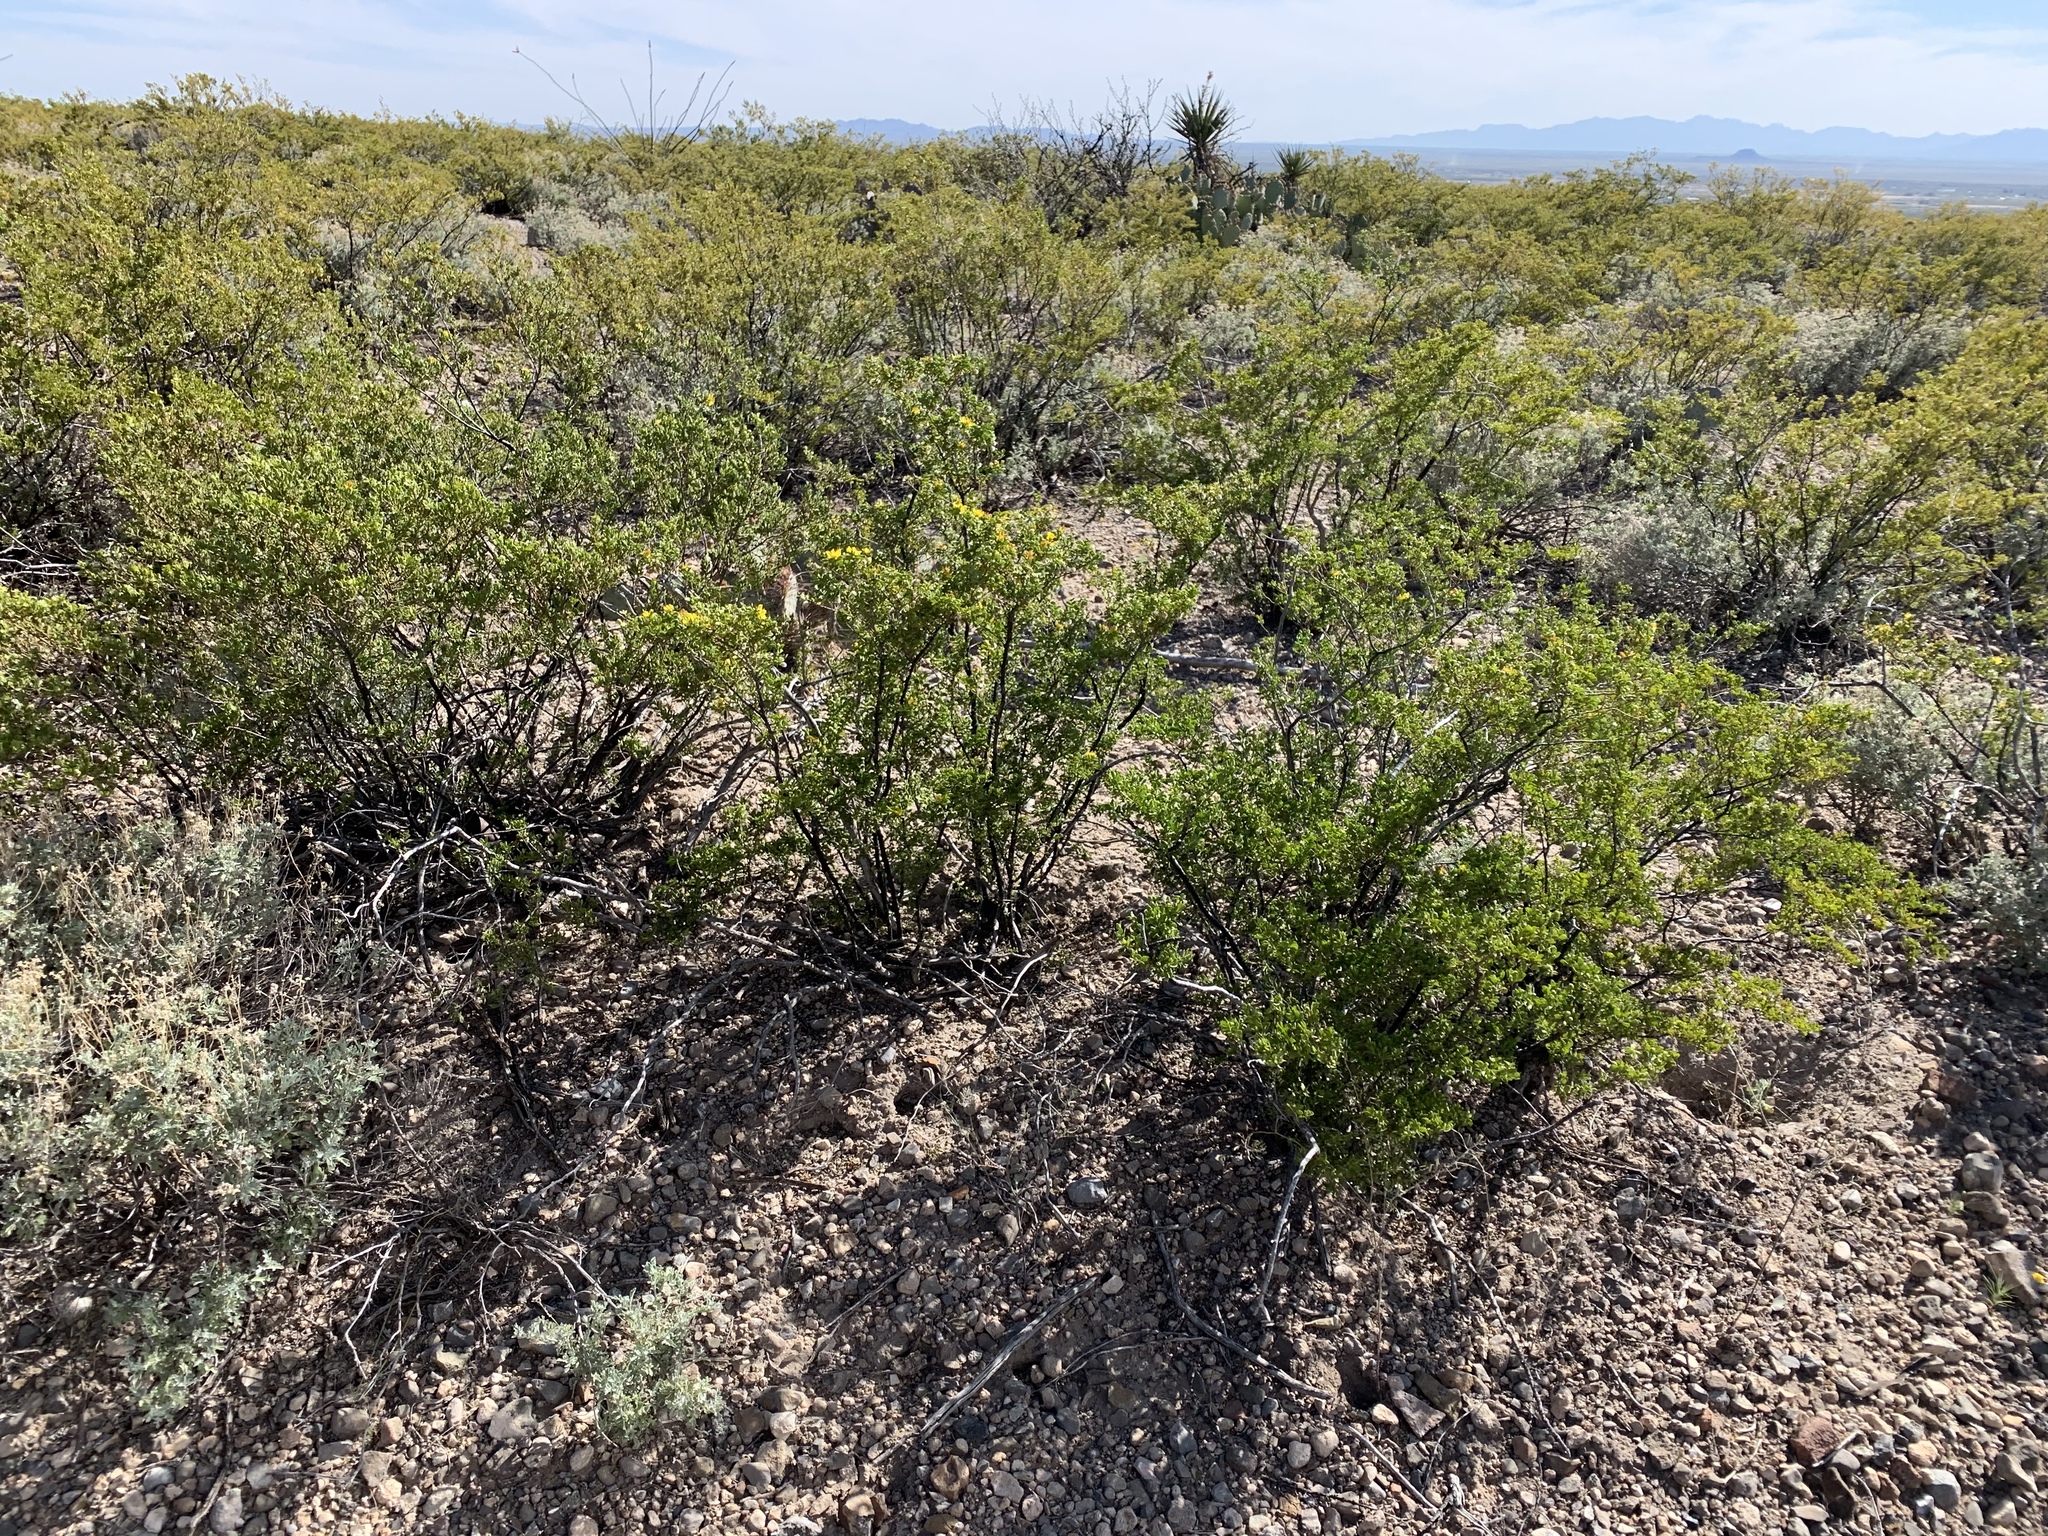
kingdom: Plantae
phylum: Tracheophyta
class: Magnoliopsida
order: Zygophyllales
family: Zygophyllaceae
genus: Larrea
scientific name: Larrea tridentata
